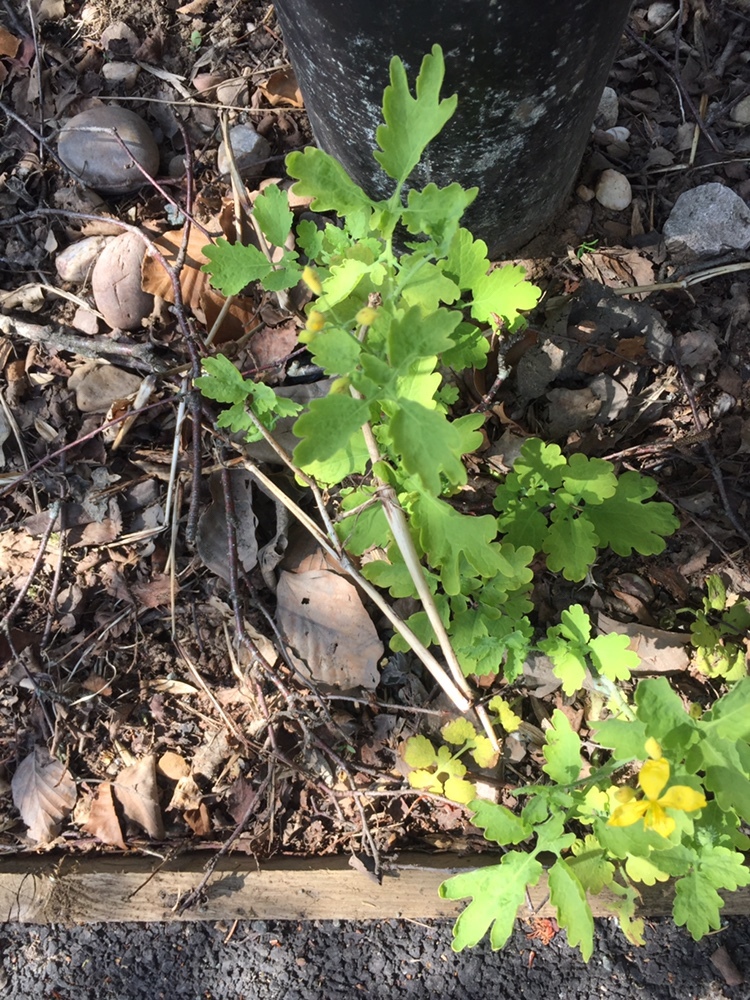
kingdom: Plantae
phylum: Tracheophyta
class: Magnoliopsida
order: Ranunculales
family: Papaveraceae
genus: Chelidonium
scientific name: Chelidonium majus
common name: Greater celandine
